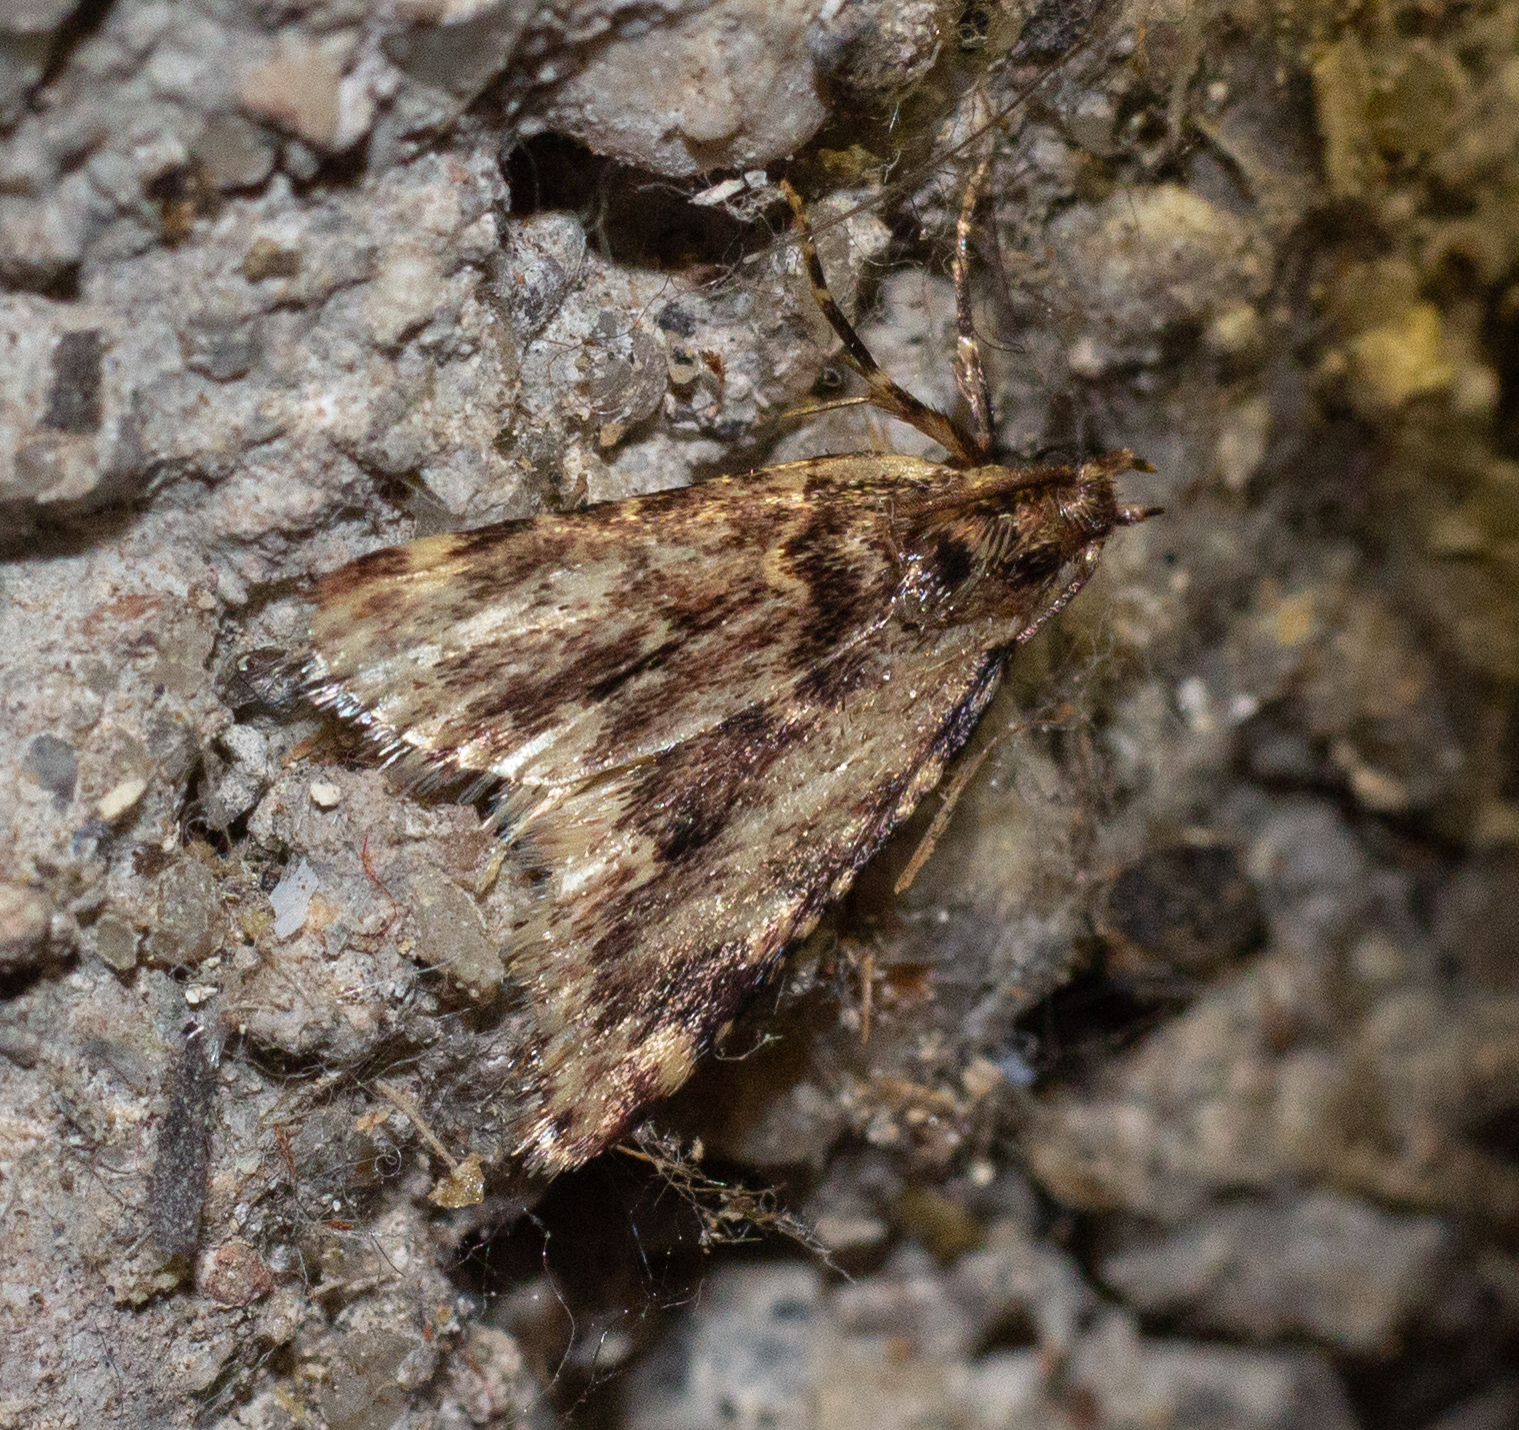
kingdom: Animalia
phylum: Arthropoda
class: Insecta
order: Lepidoptera
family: Pyralidae
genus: Aglossa
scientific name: Aglossa caprealis
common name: Small tabby
